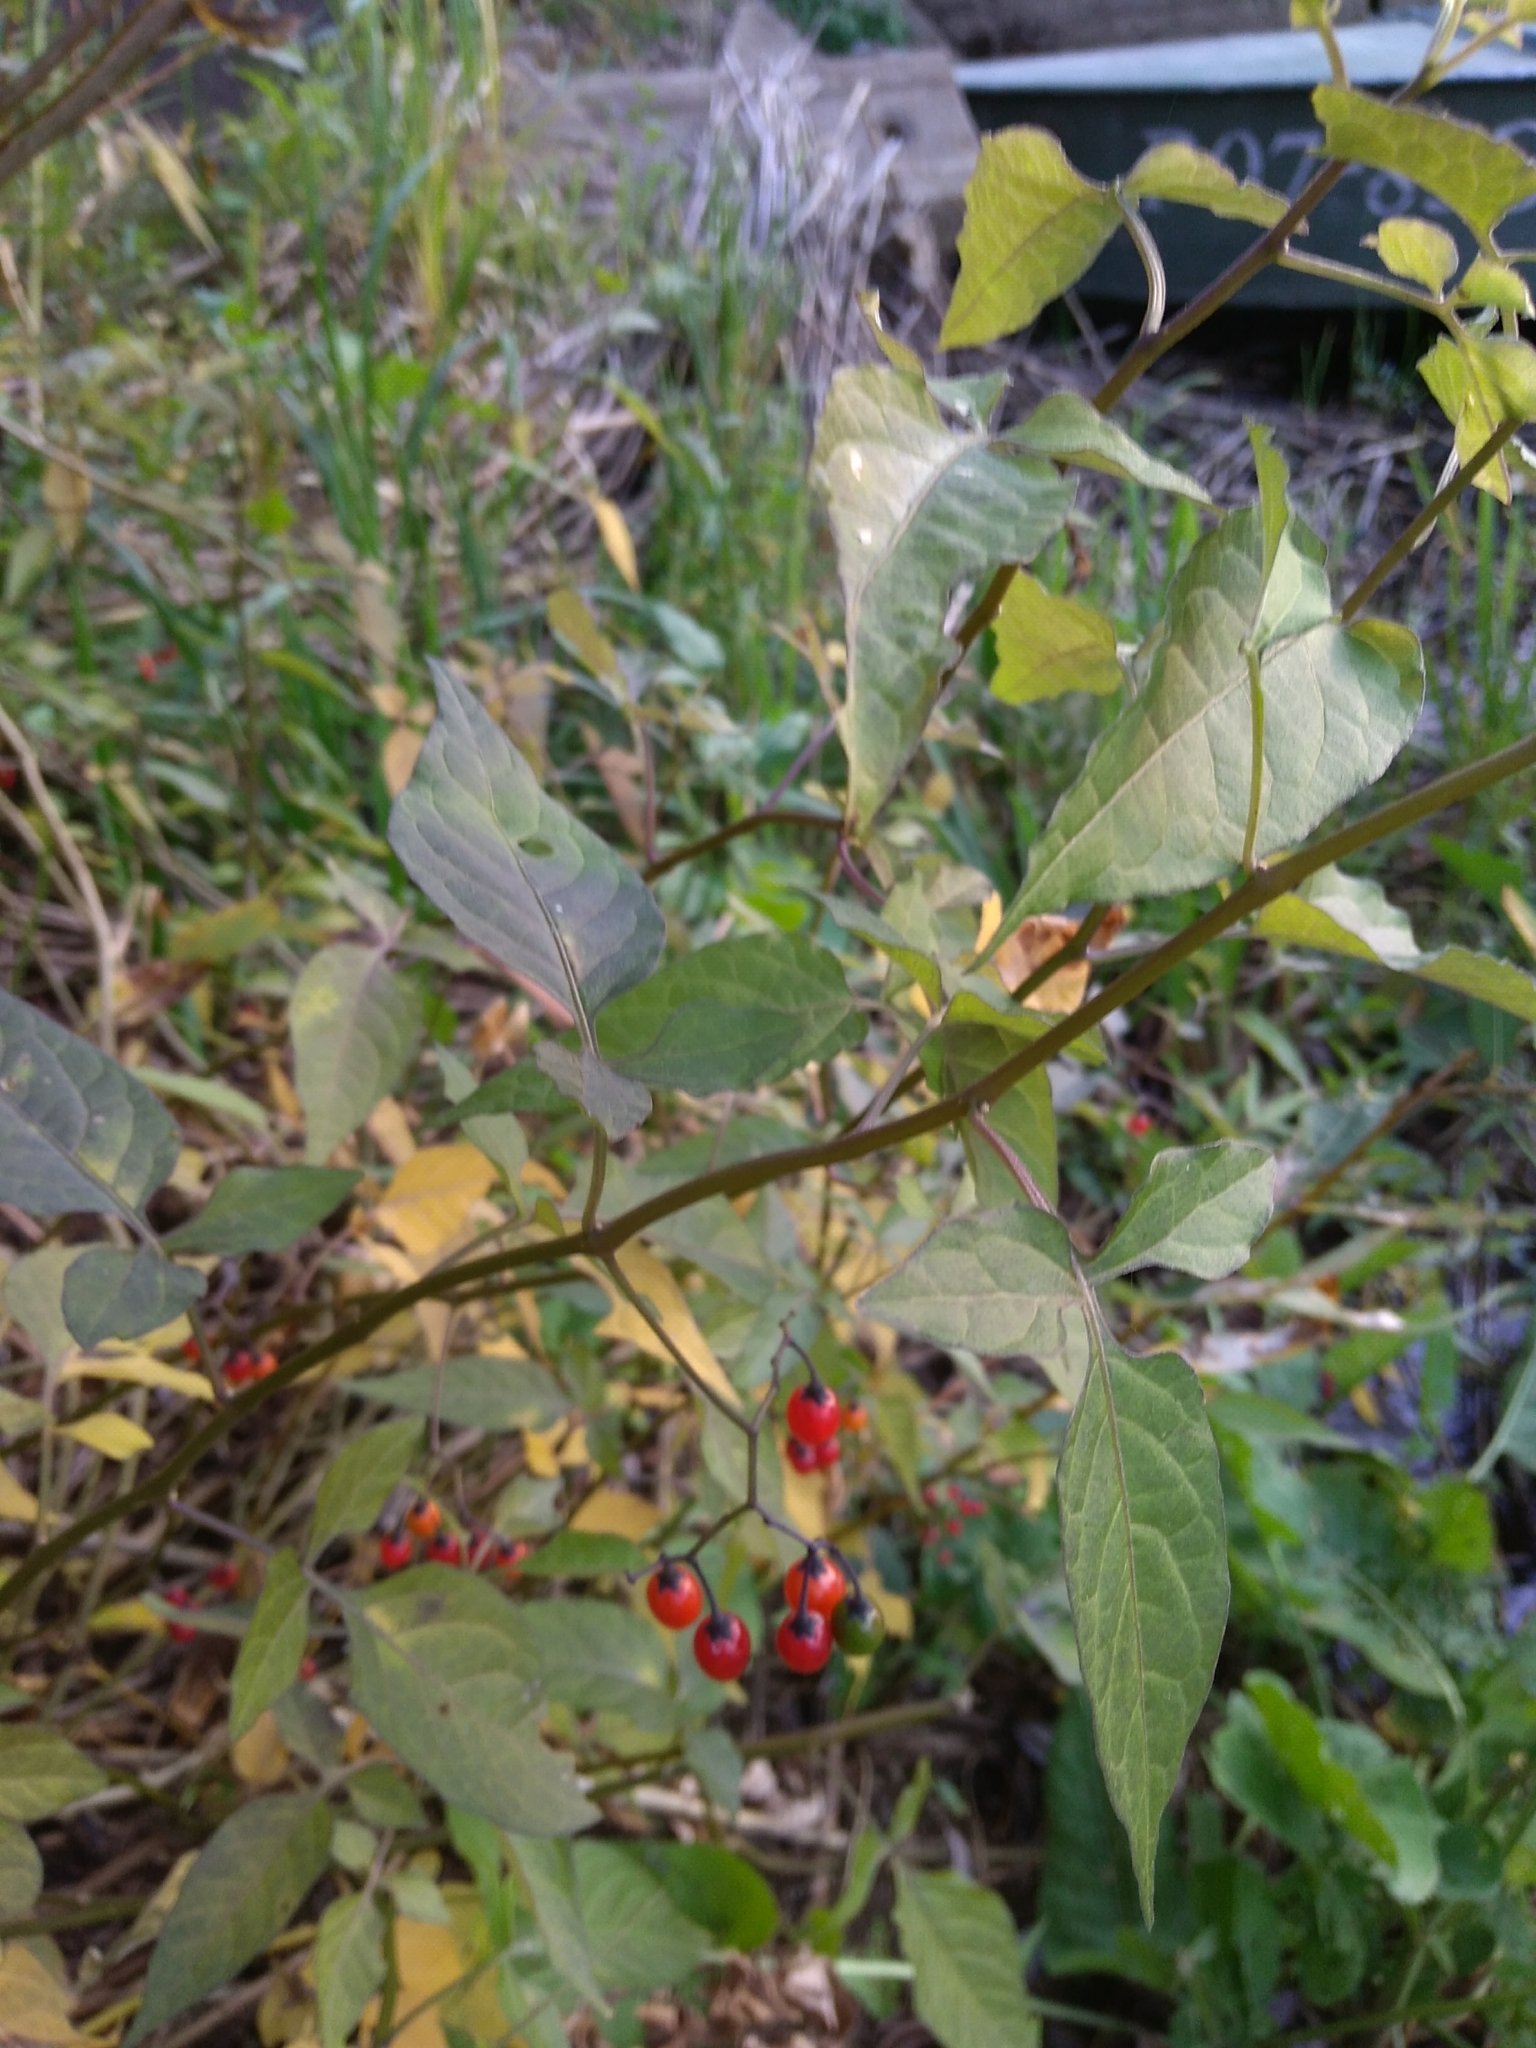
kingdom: Plantae
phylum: Tracheophyta
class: Magnoliopsida
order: Solanales
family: Solanaceae
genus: Solanum
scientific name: Solanum dulcamara
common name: Climbing nightshade
